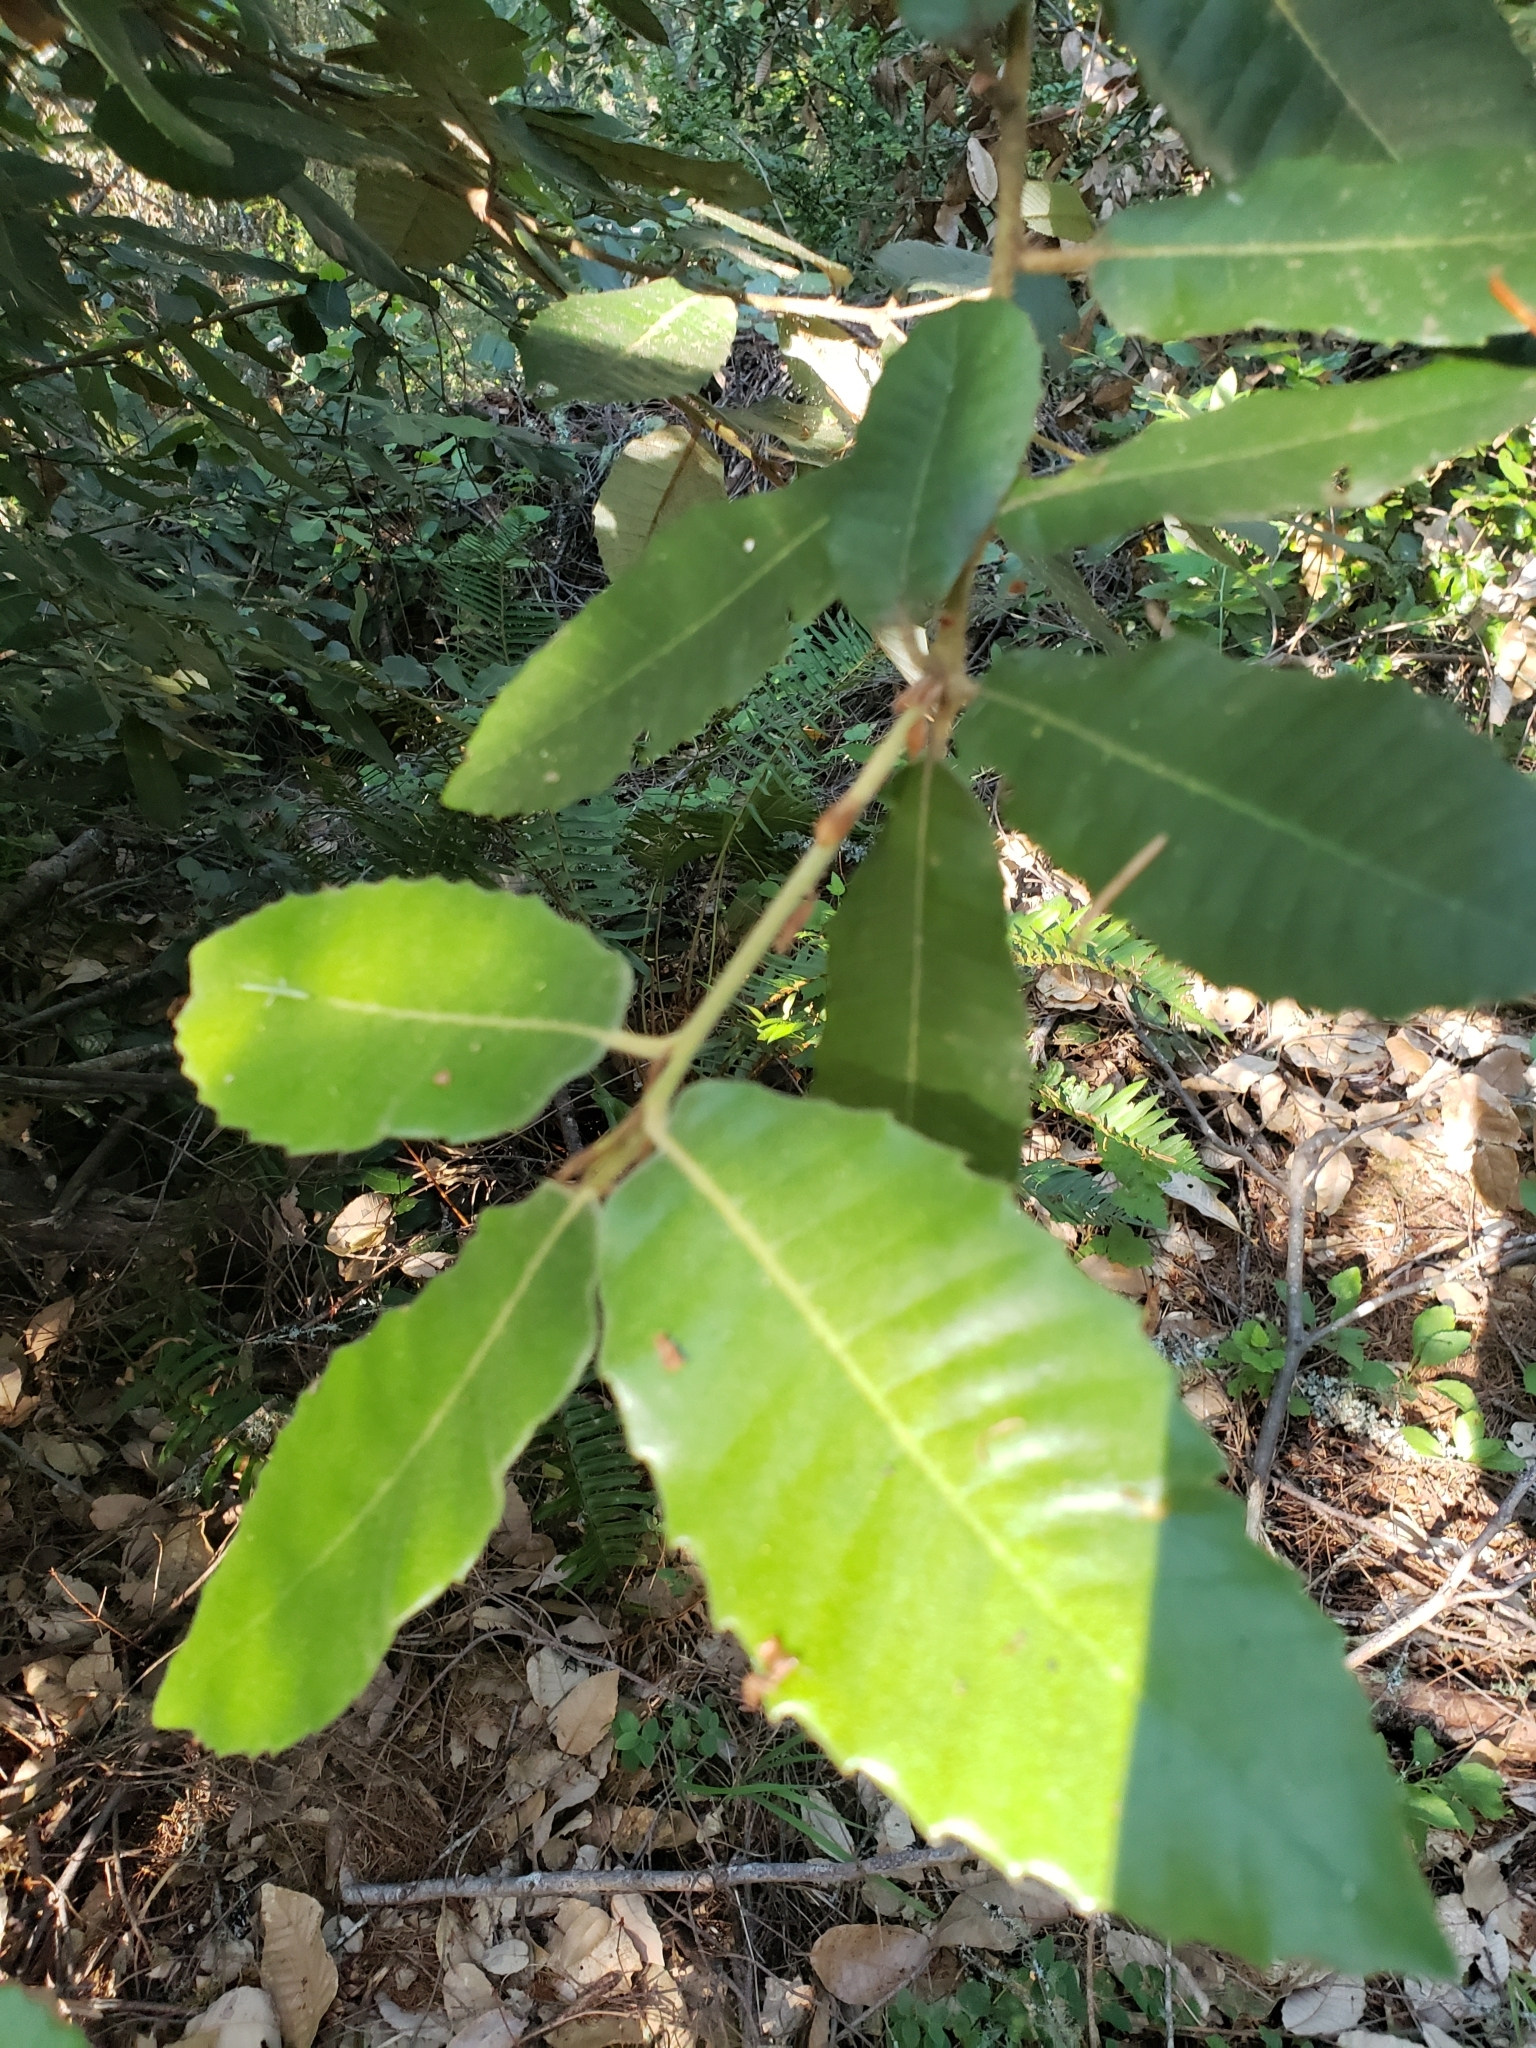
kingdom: Plantae
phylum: Tracheophyta
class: Magnoliopsida
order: Fagales
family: Fagaceae
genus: Notholithocarpus
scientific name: Notholithocarpus densiflorus
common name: Tan bark oak
